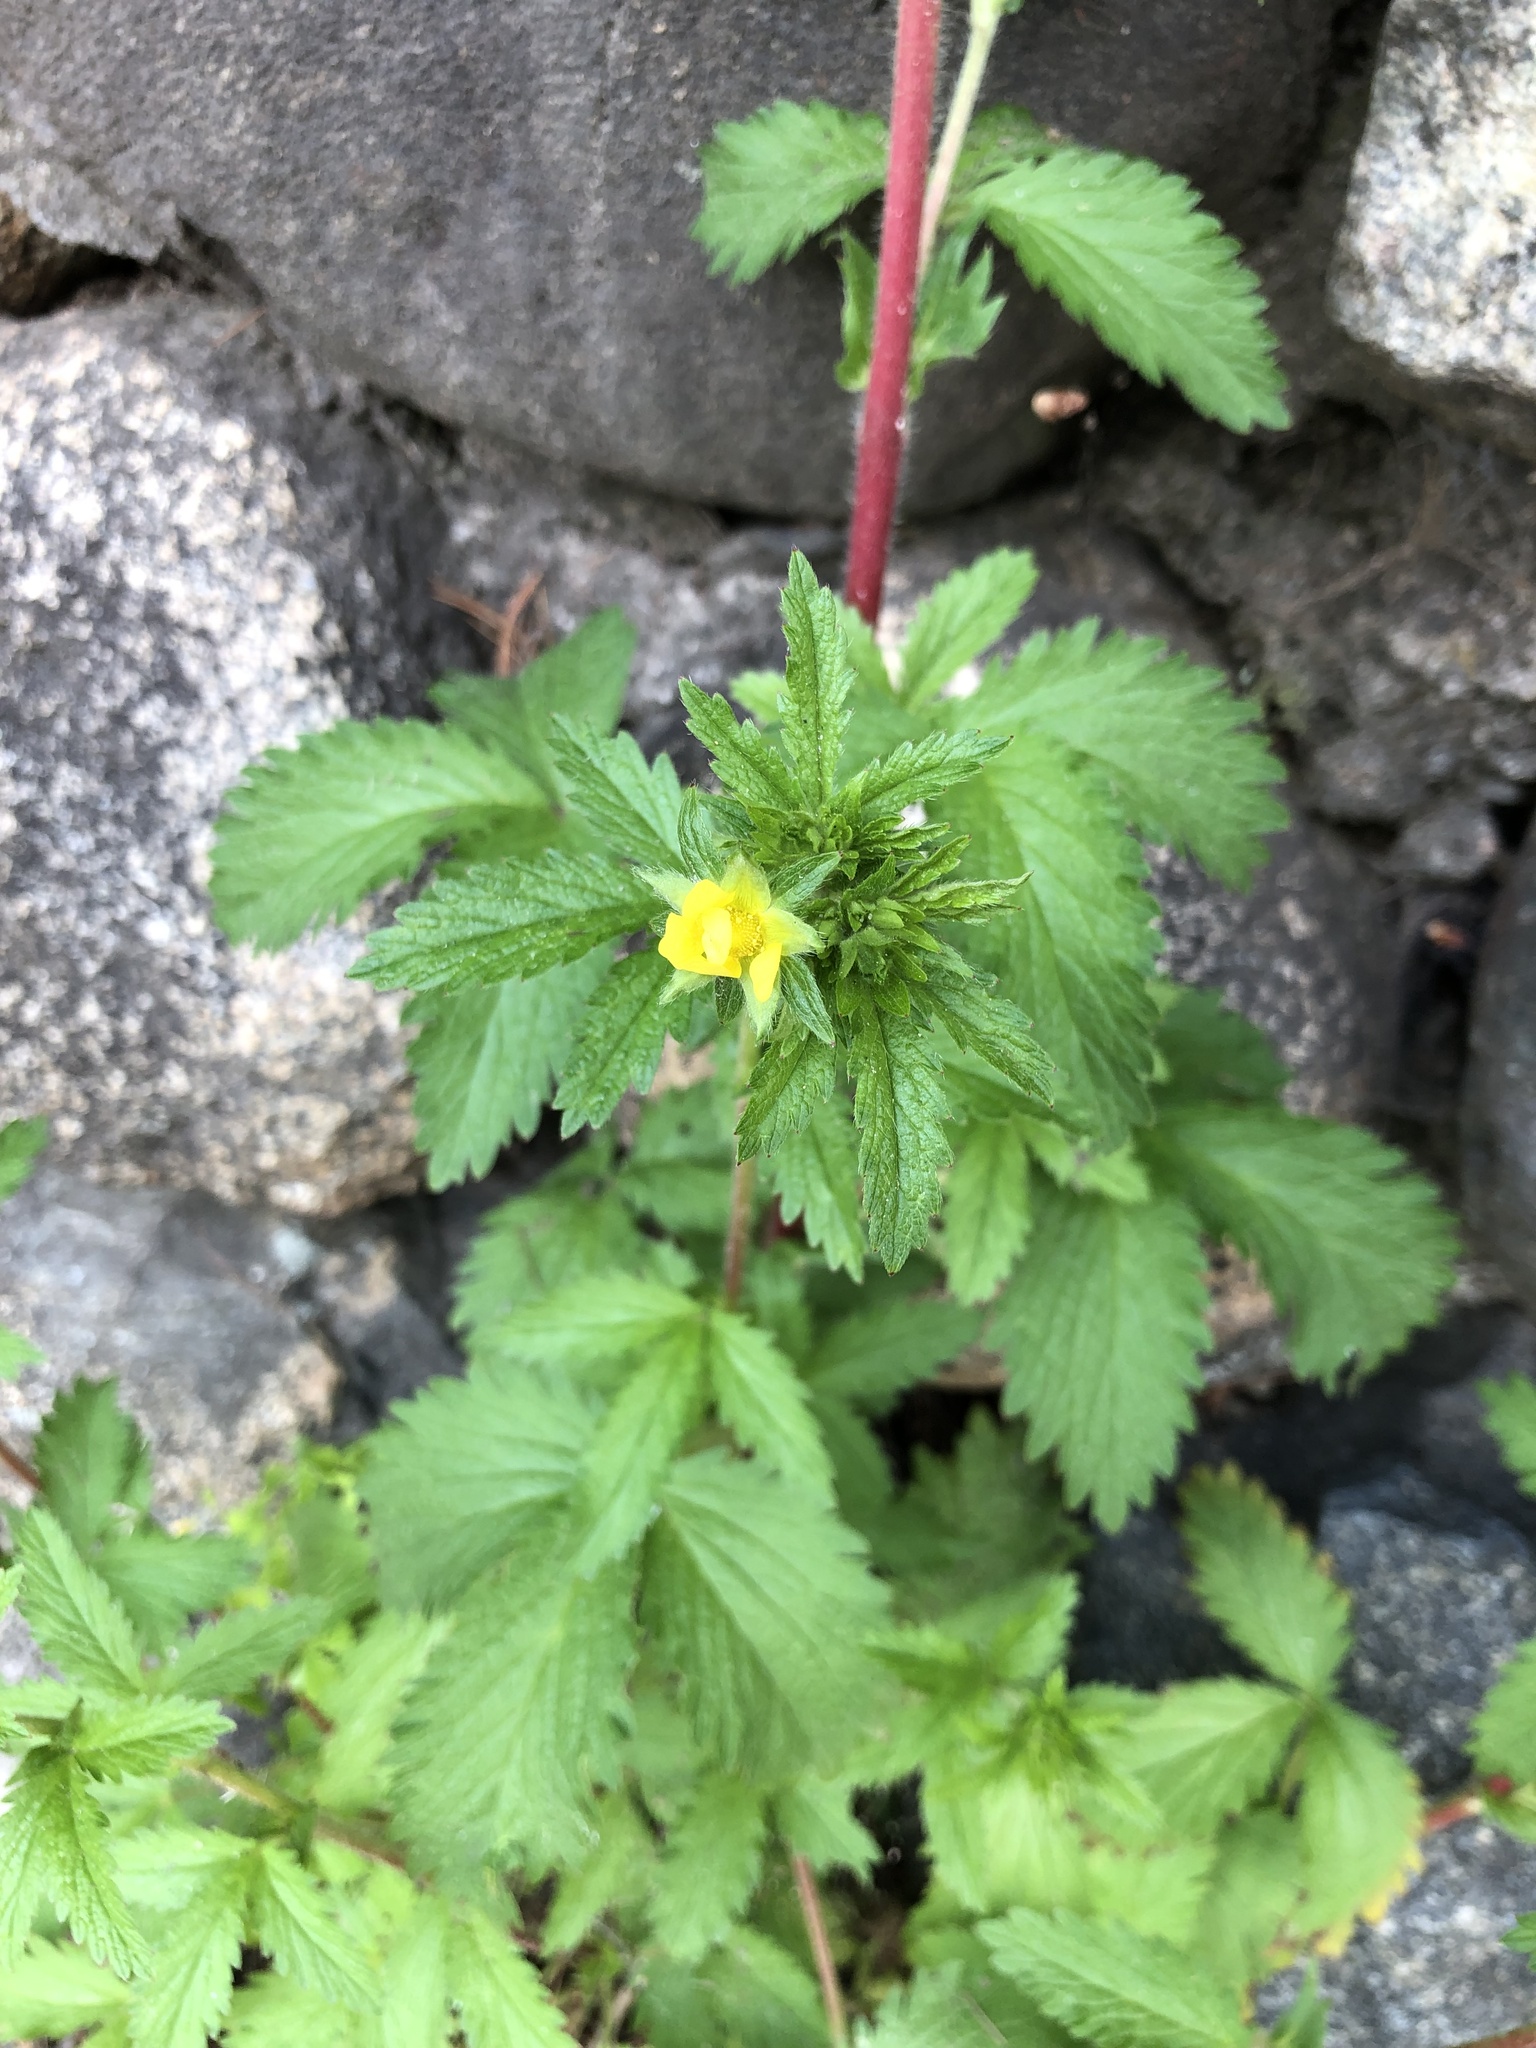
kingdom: Plantae
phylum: Tracheophyta
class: Magnoliopsida
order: Rosales
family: Rosaceae
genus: Potentilla
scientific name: Potentilla norvegica
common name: Ternate-leaved cinquefoil
